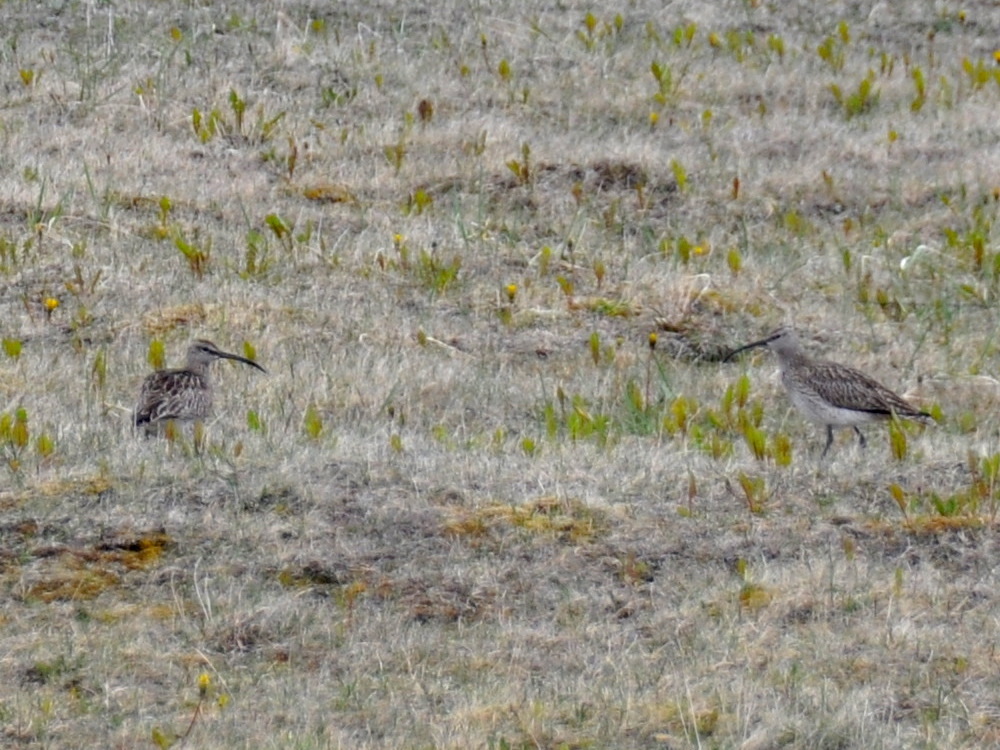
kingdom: Animalia
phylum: Chordata
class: Aves
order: Charadriiformes
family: Scolopacidae
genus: Numenius
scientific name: Numenius phaeopus
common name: Whimbrel
